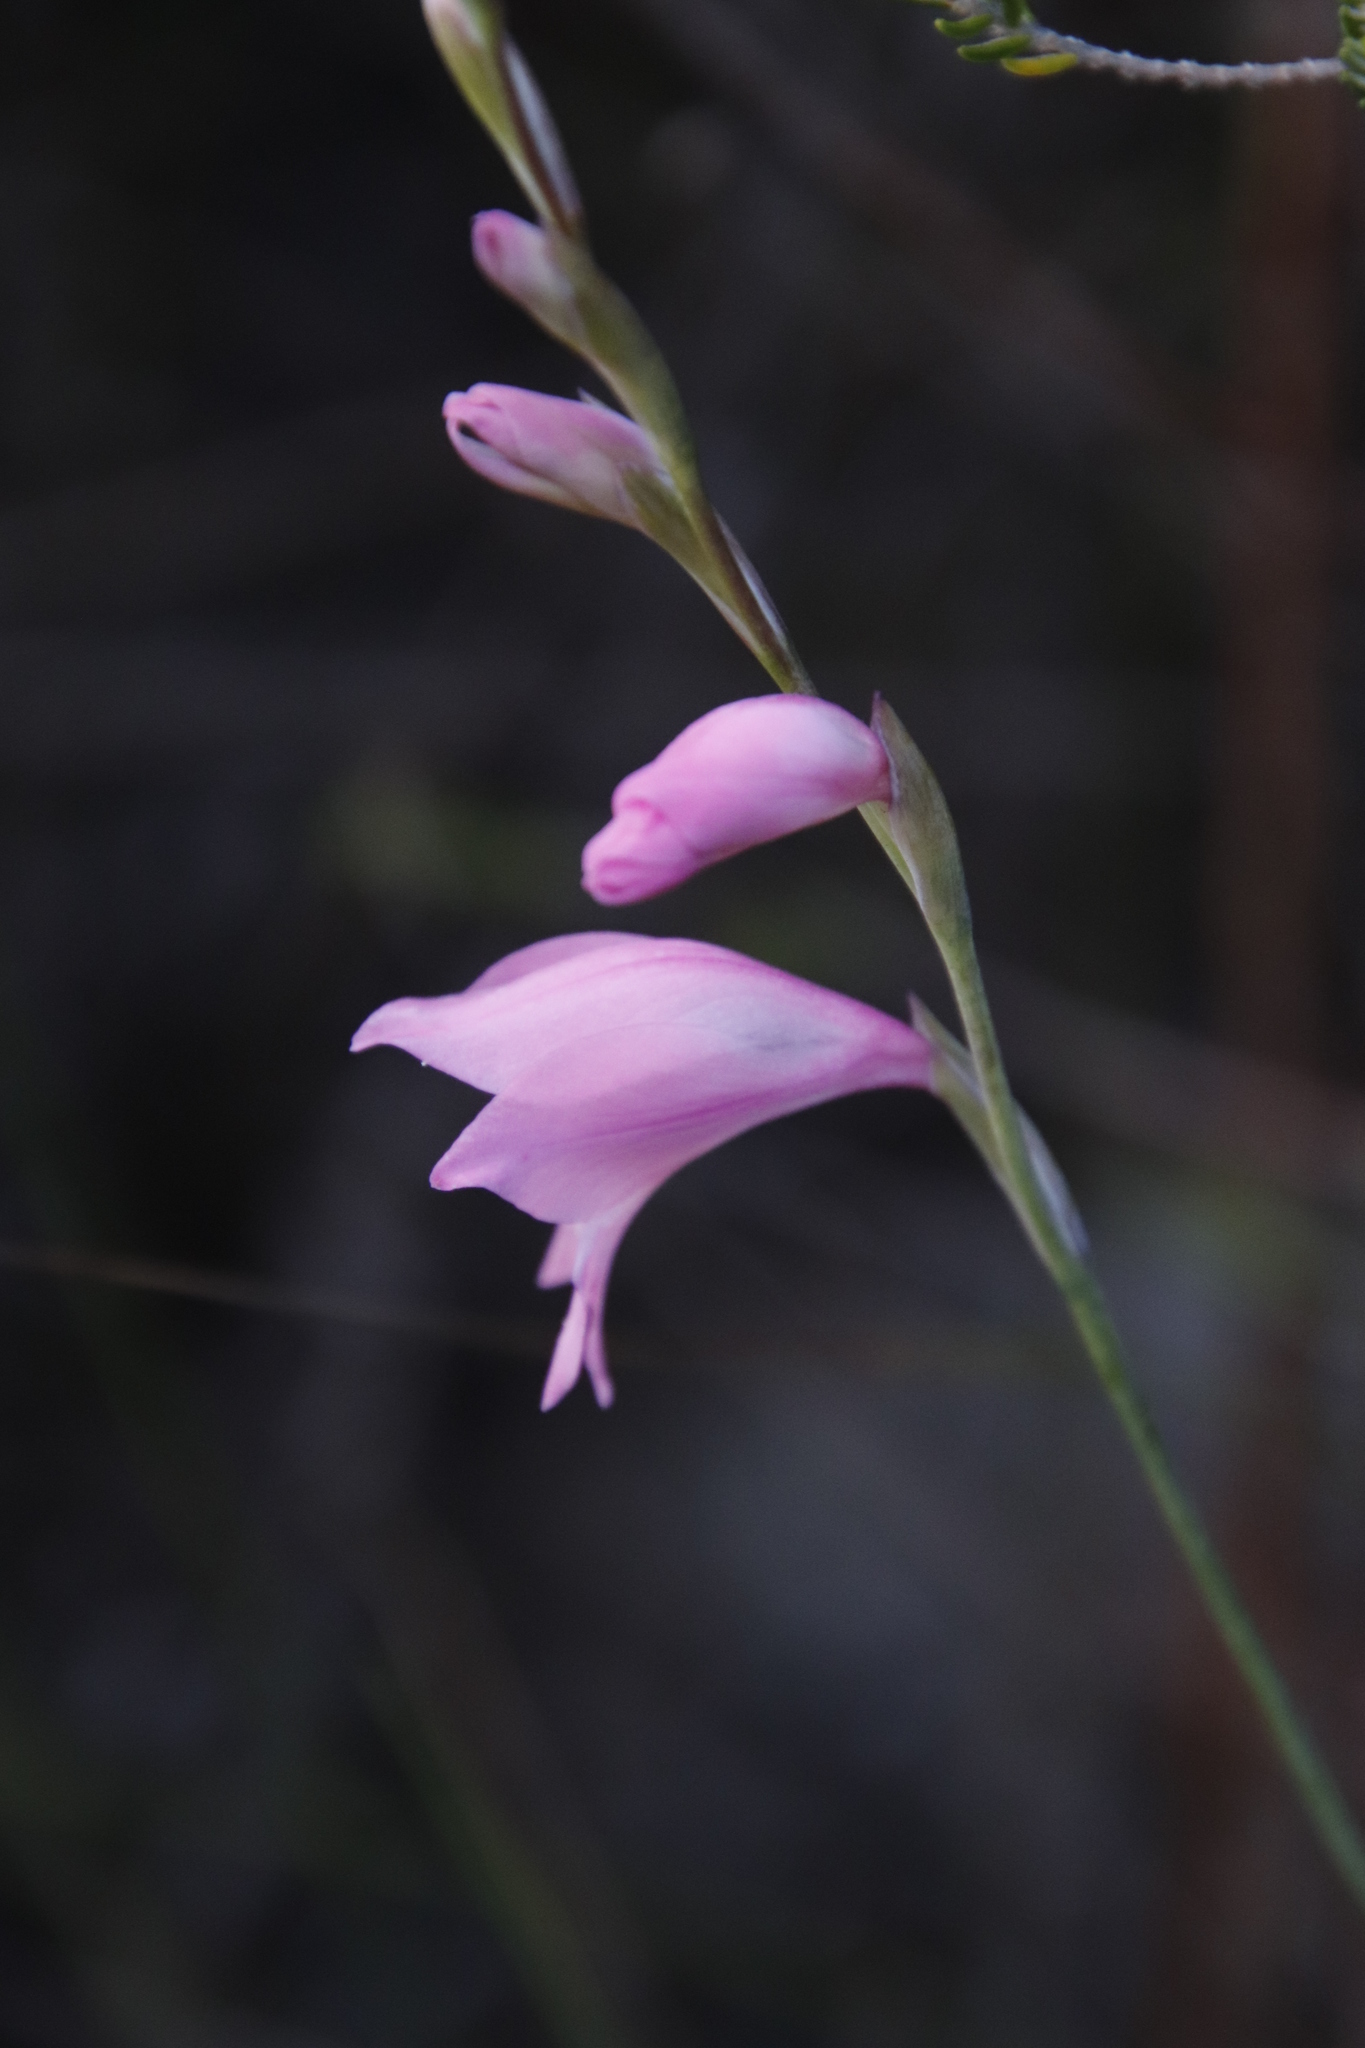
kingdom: Plantae
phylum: Tracheophyta
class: Liliopsida
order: Asparagales
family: Iridaceae
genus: Gladiolus
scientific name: Gladiolus brevifolius
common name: March pypie
